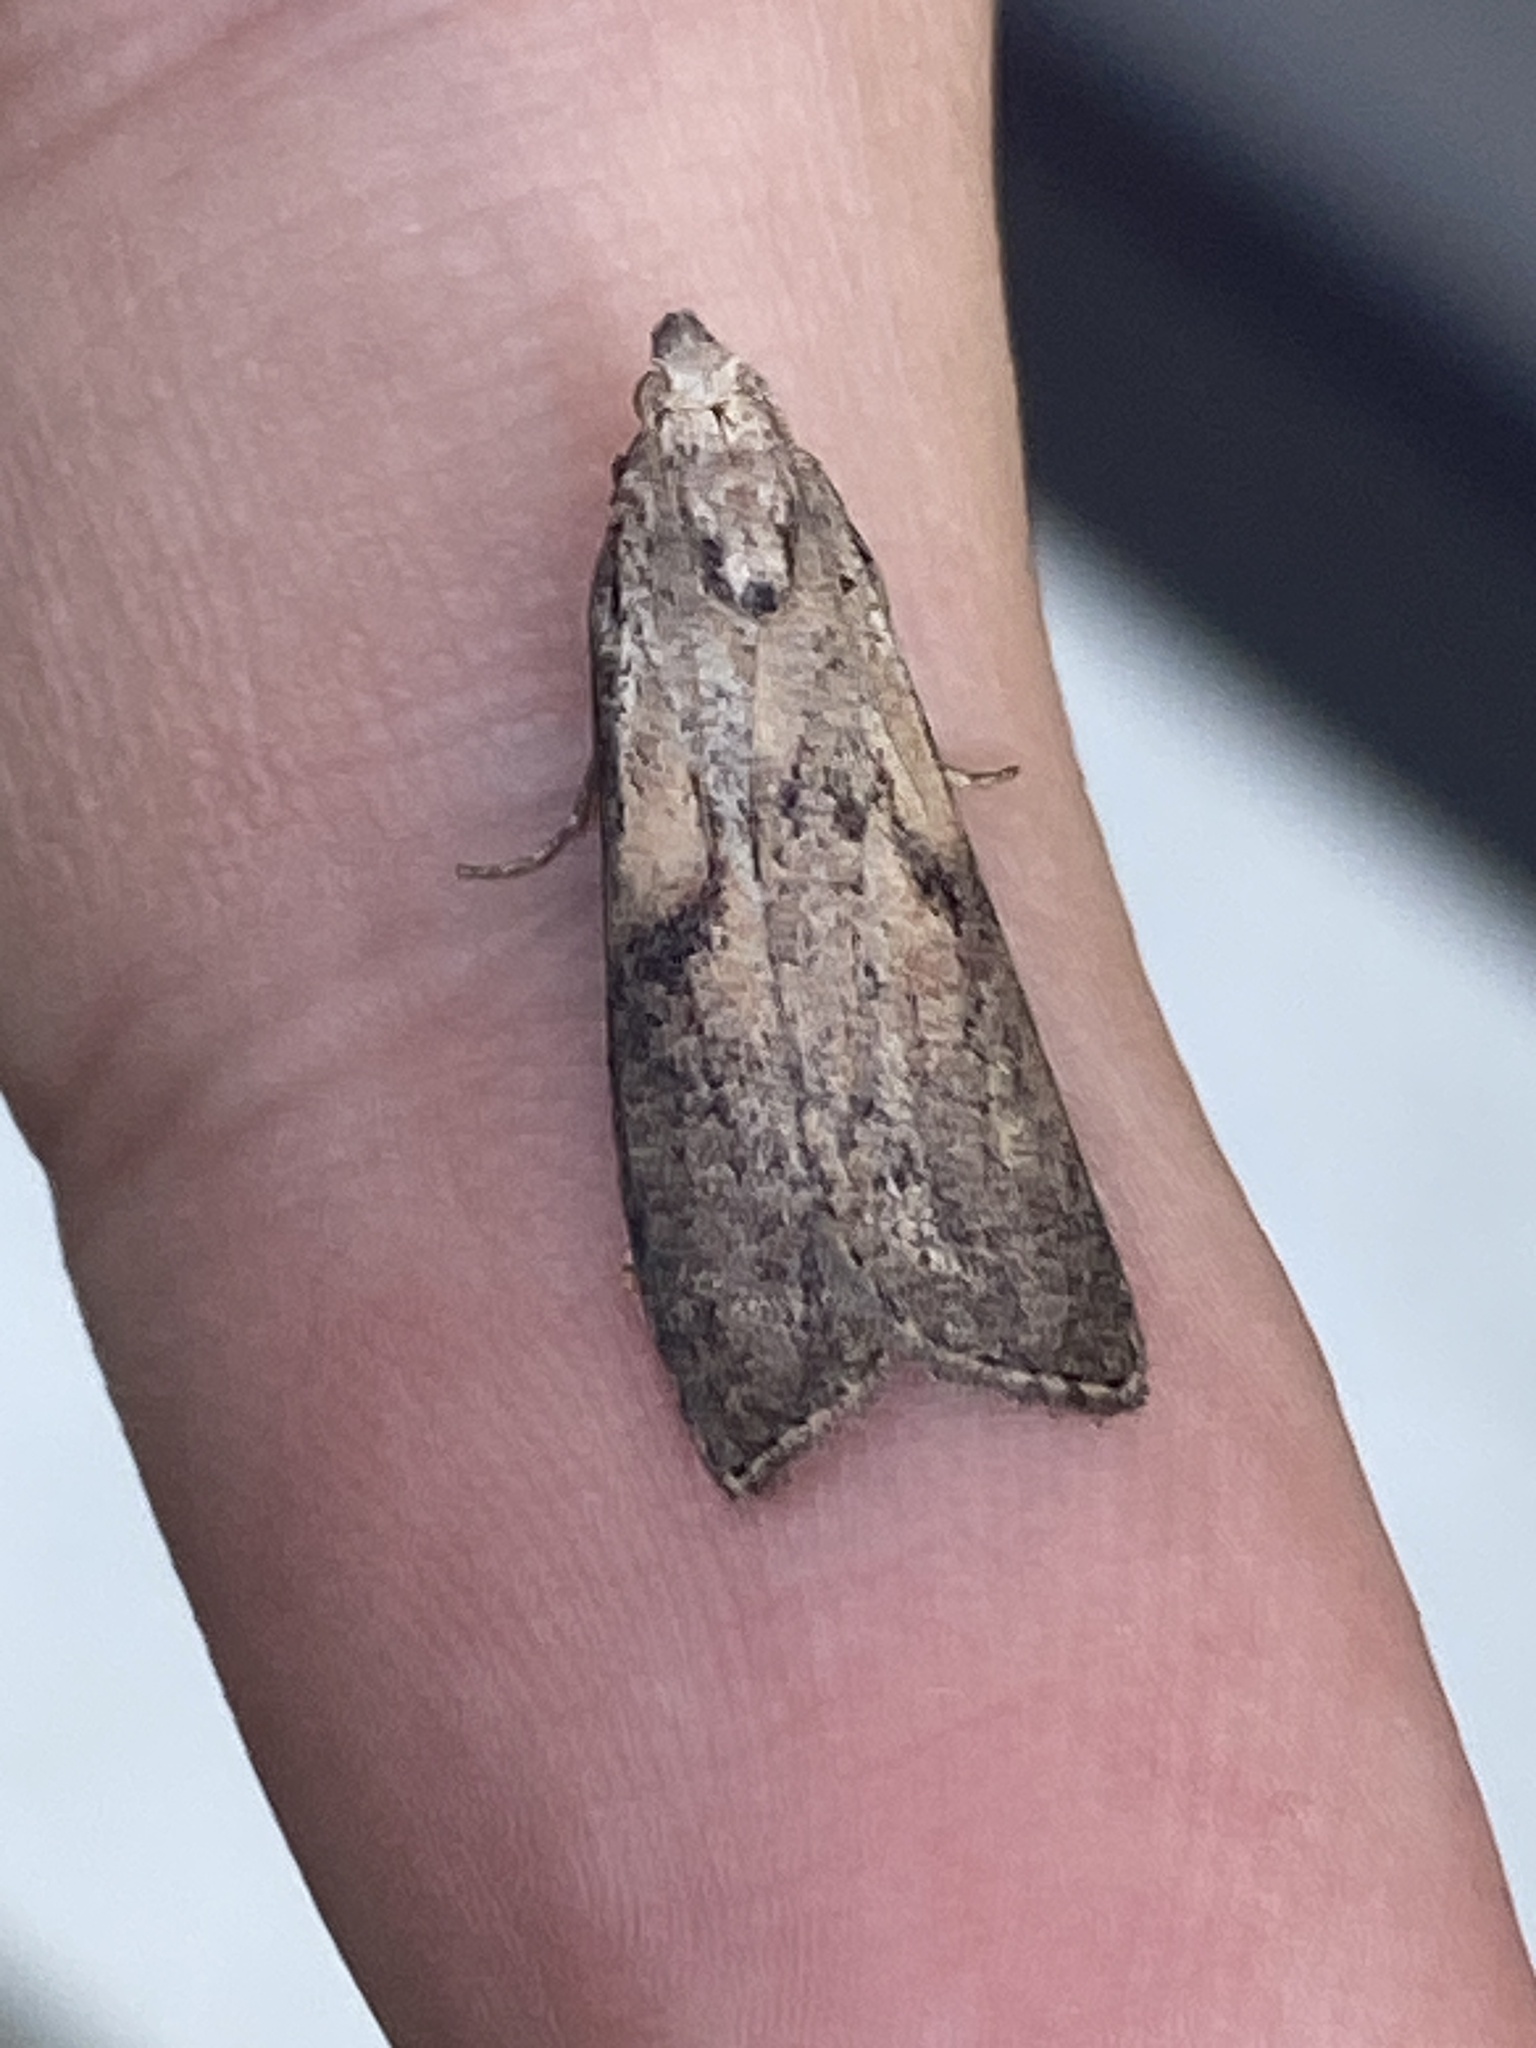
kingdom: Animalia
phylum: Arthropoda
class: Insecta
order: Lepidoptera
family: Pyralidae
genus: Aphomia
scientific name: Aphomia sociella
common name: Bee moth
